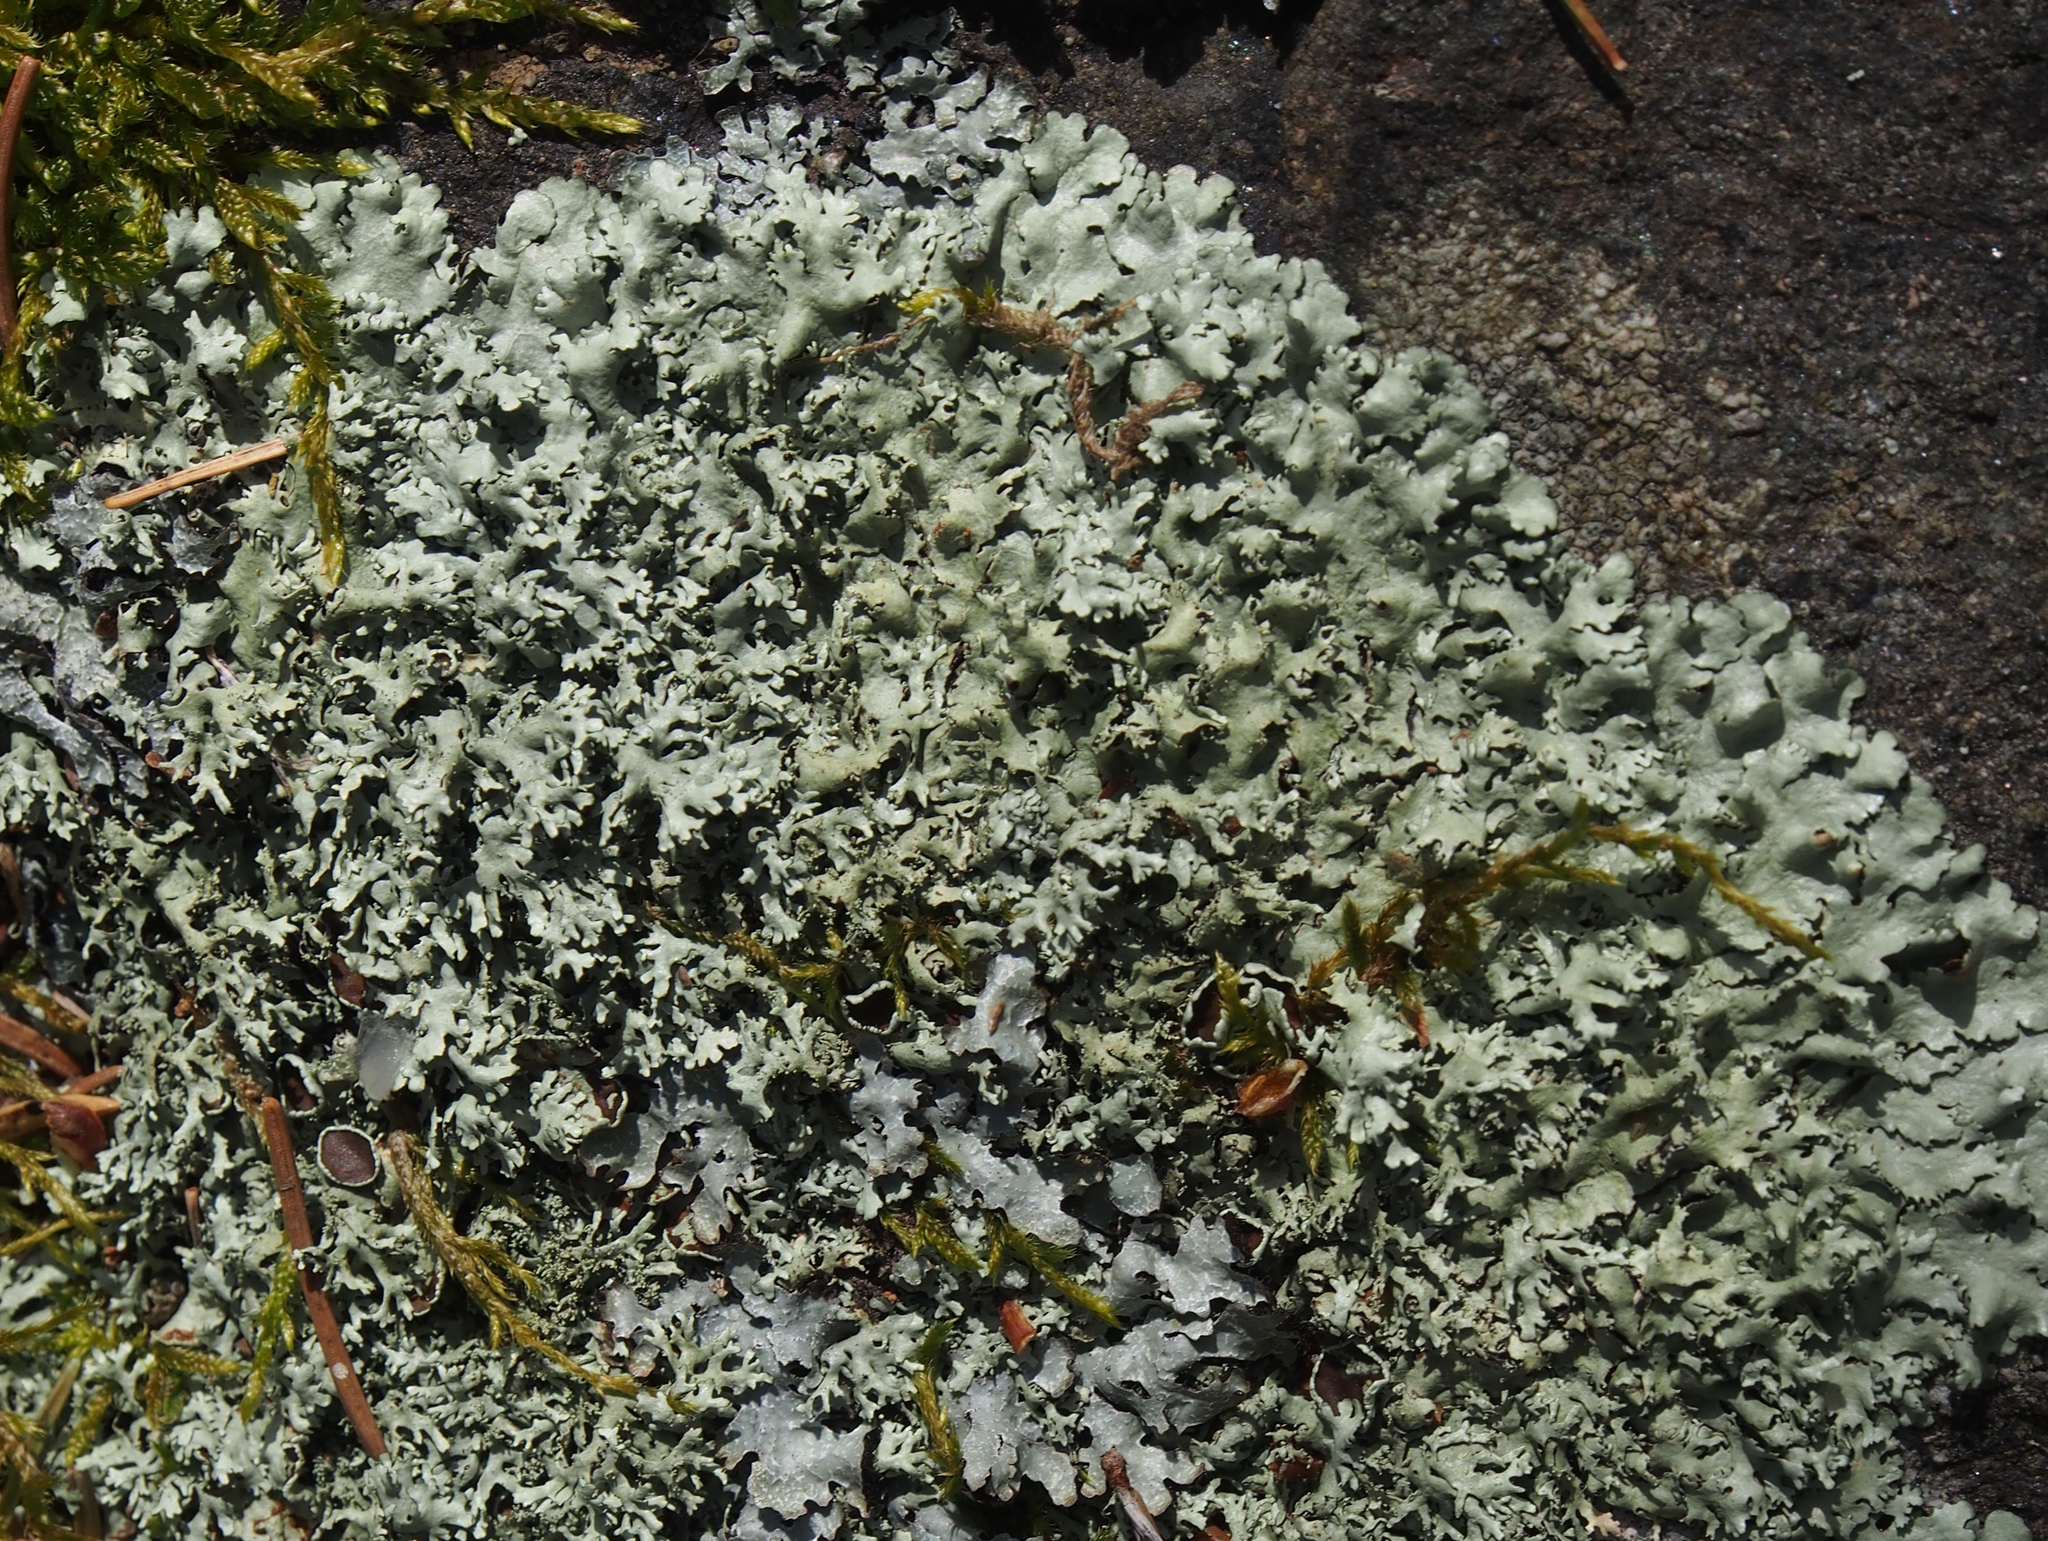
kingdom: Fungi
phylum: Ascomycota
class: Lecanoromycetes
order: Lecanorales
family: Parmeliaceae
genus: Xanthoparmelia
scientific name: Xanthoparmelia conspersa
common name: Peppered rock shield
